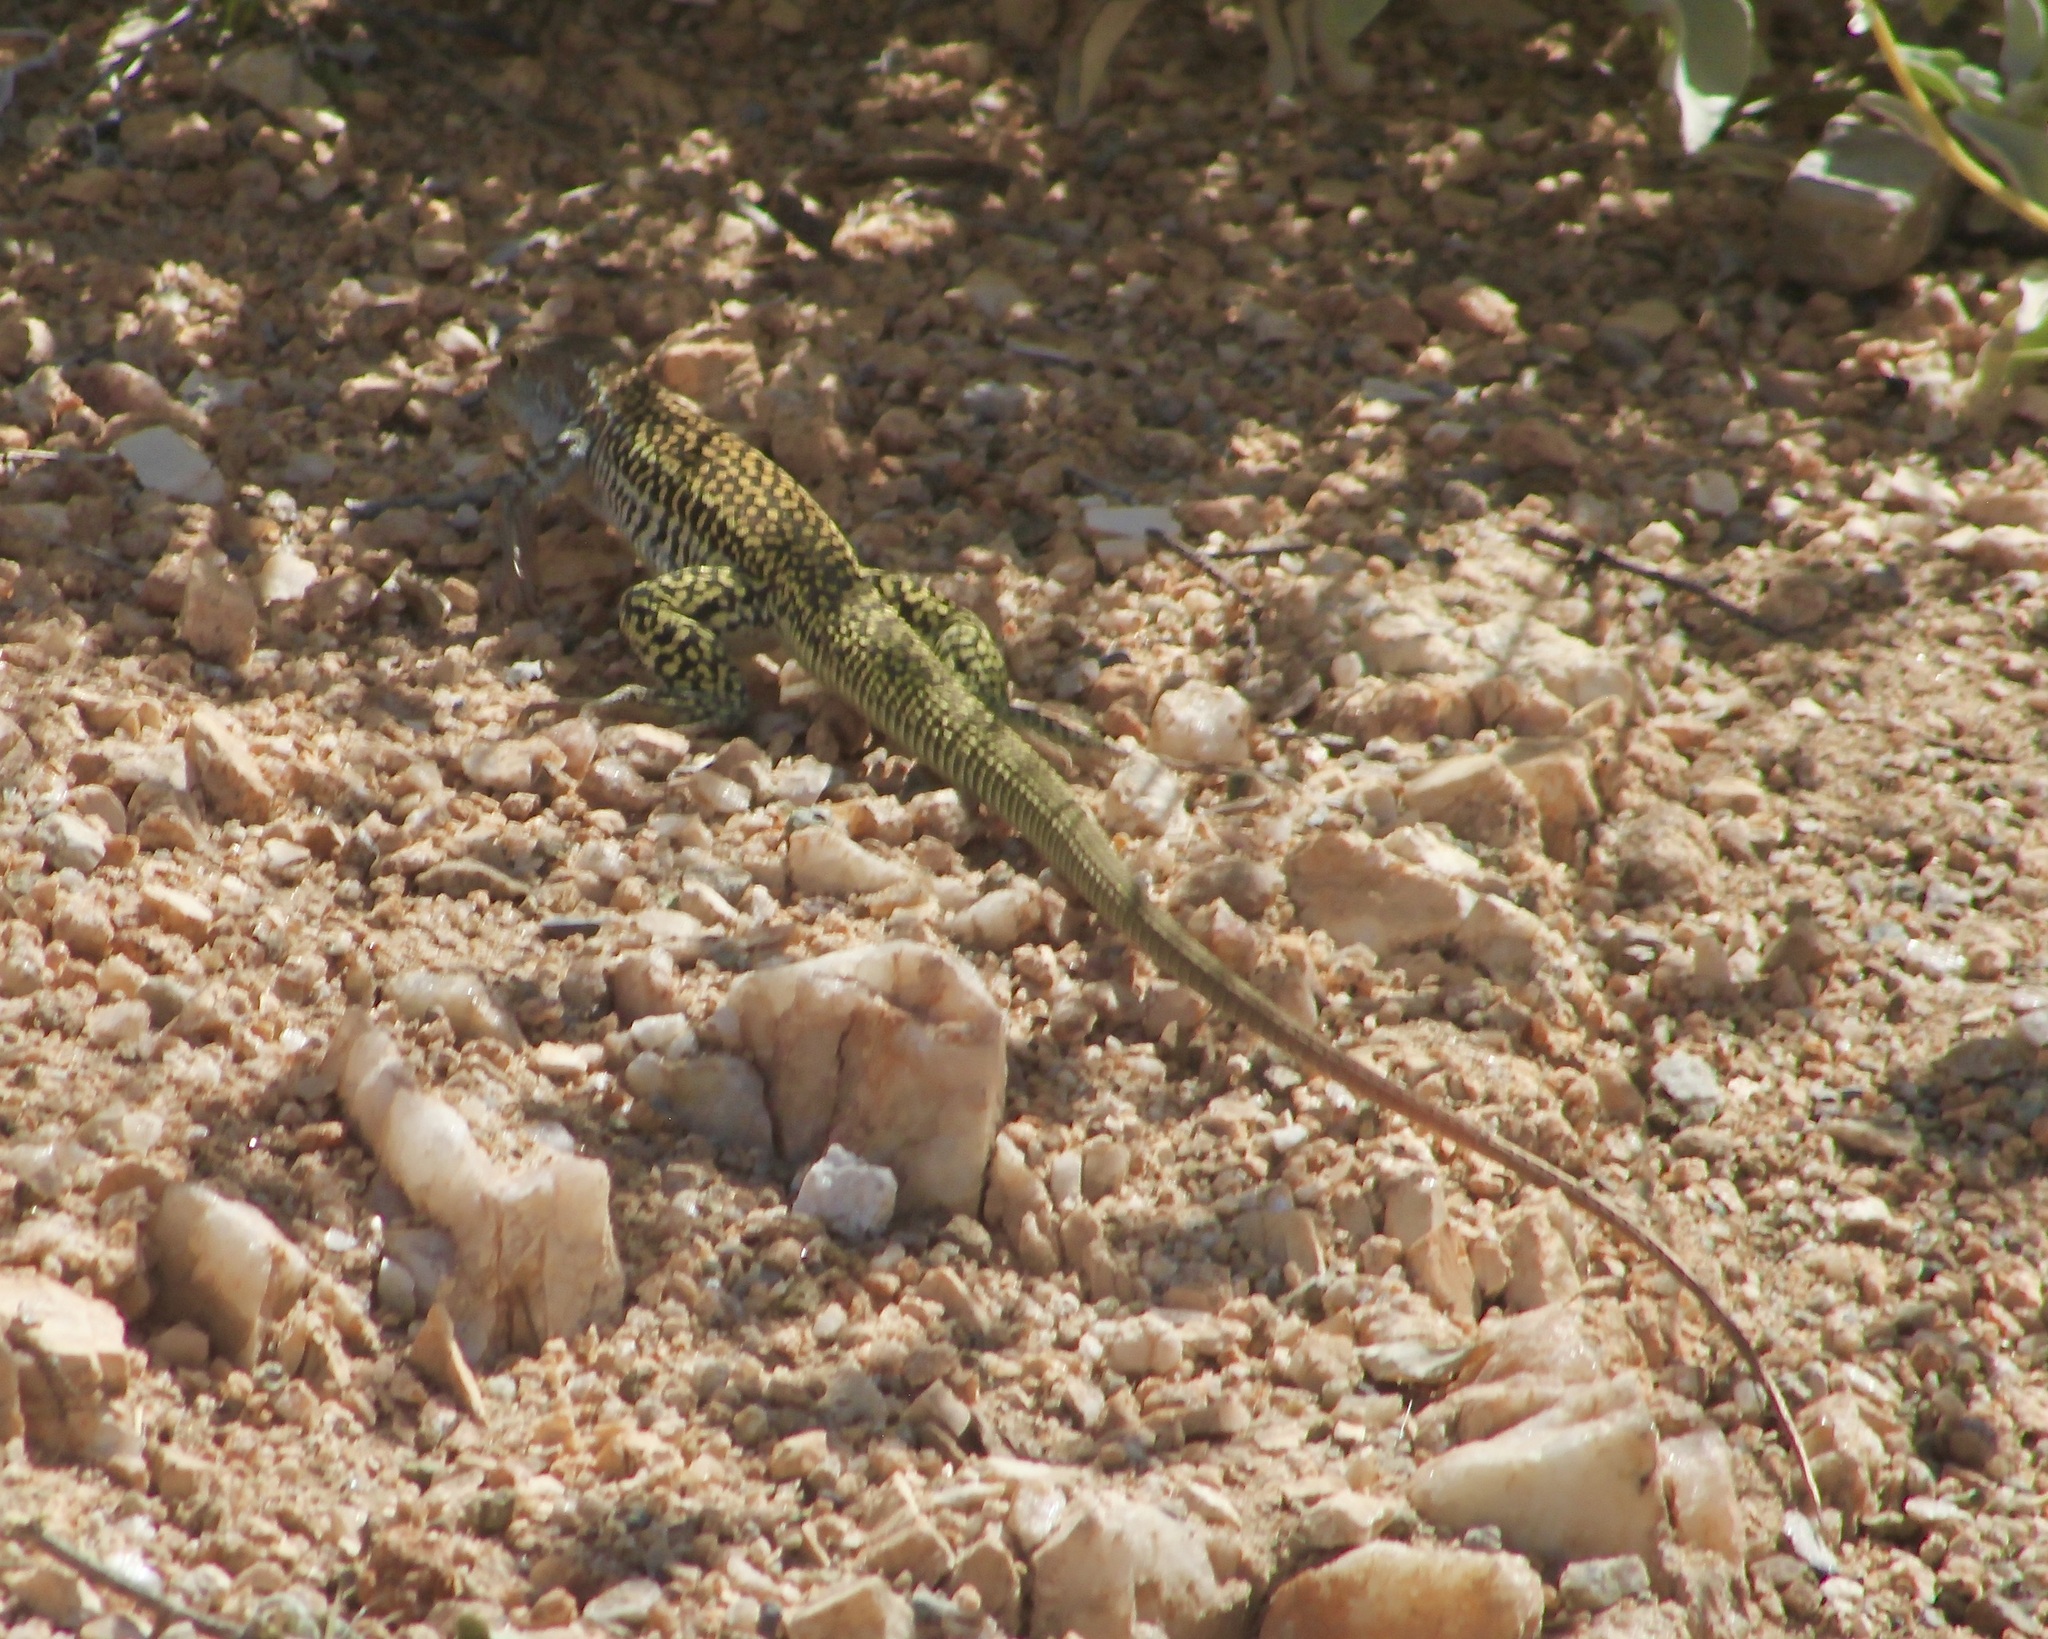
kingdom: Animalia
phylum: Chordata
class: Squamata
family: Teiidae
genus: Aspidoscelis
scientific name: Aspidoscelis stictogrammus
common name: Giant spotted whiptail
